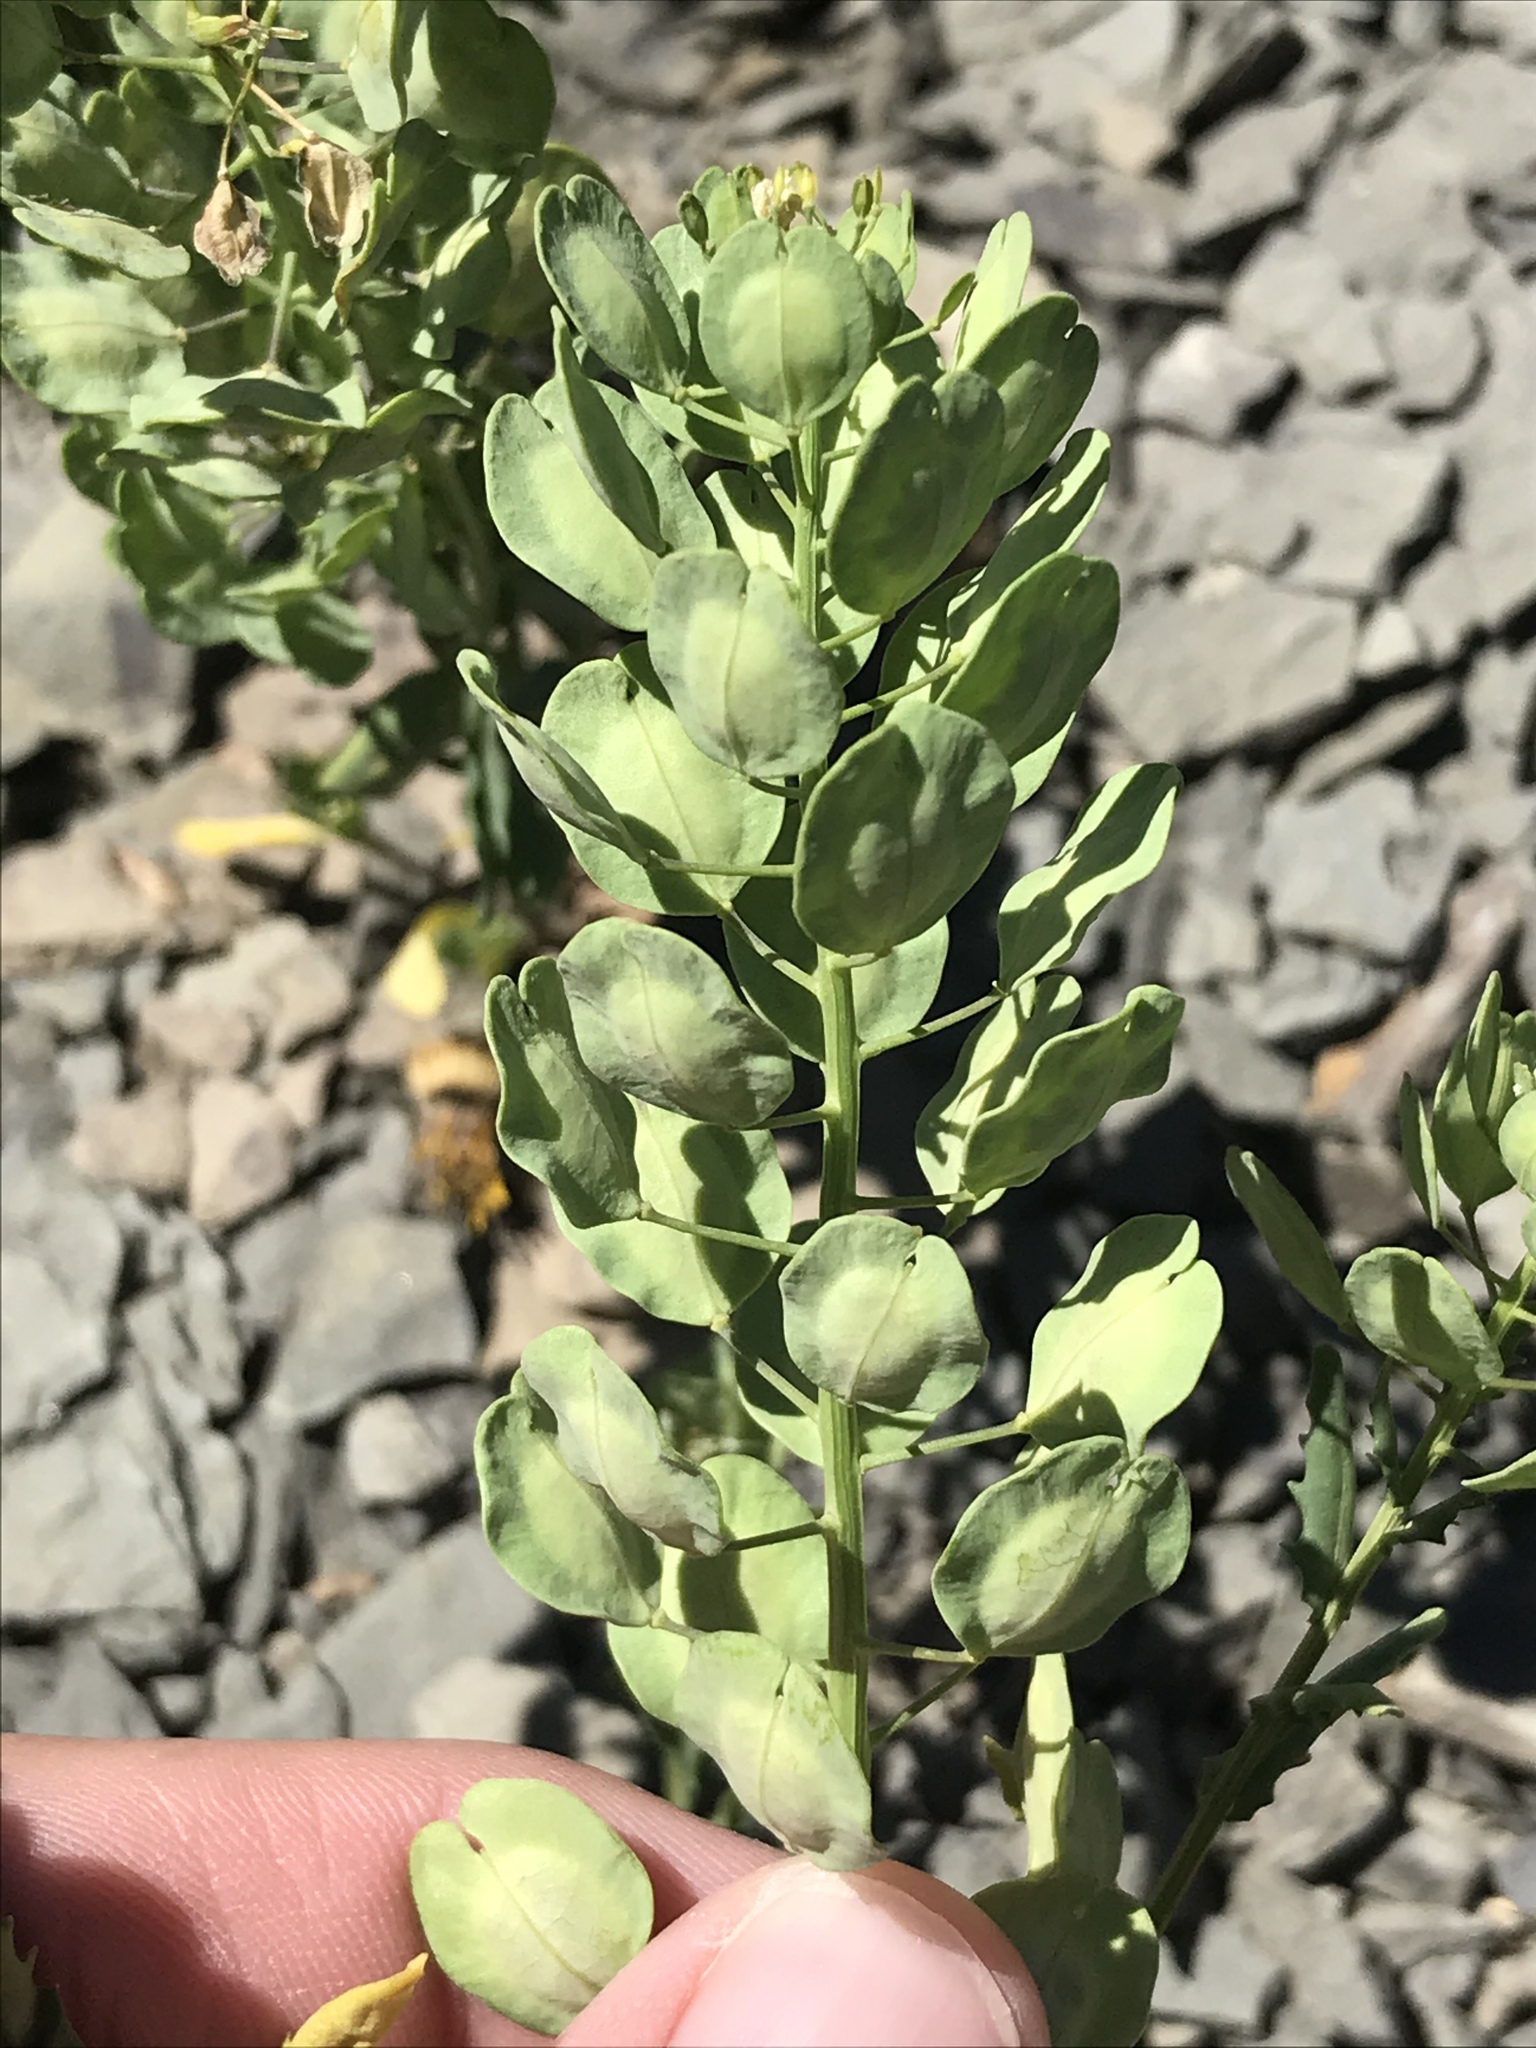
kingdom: Plantae
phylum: Tracheophyta
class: Magnoliopsida
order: Brassicales
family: Brassicaceae
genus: Thlaspi
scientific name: Thlaspi arvense
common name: Field pennycress
